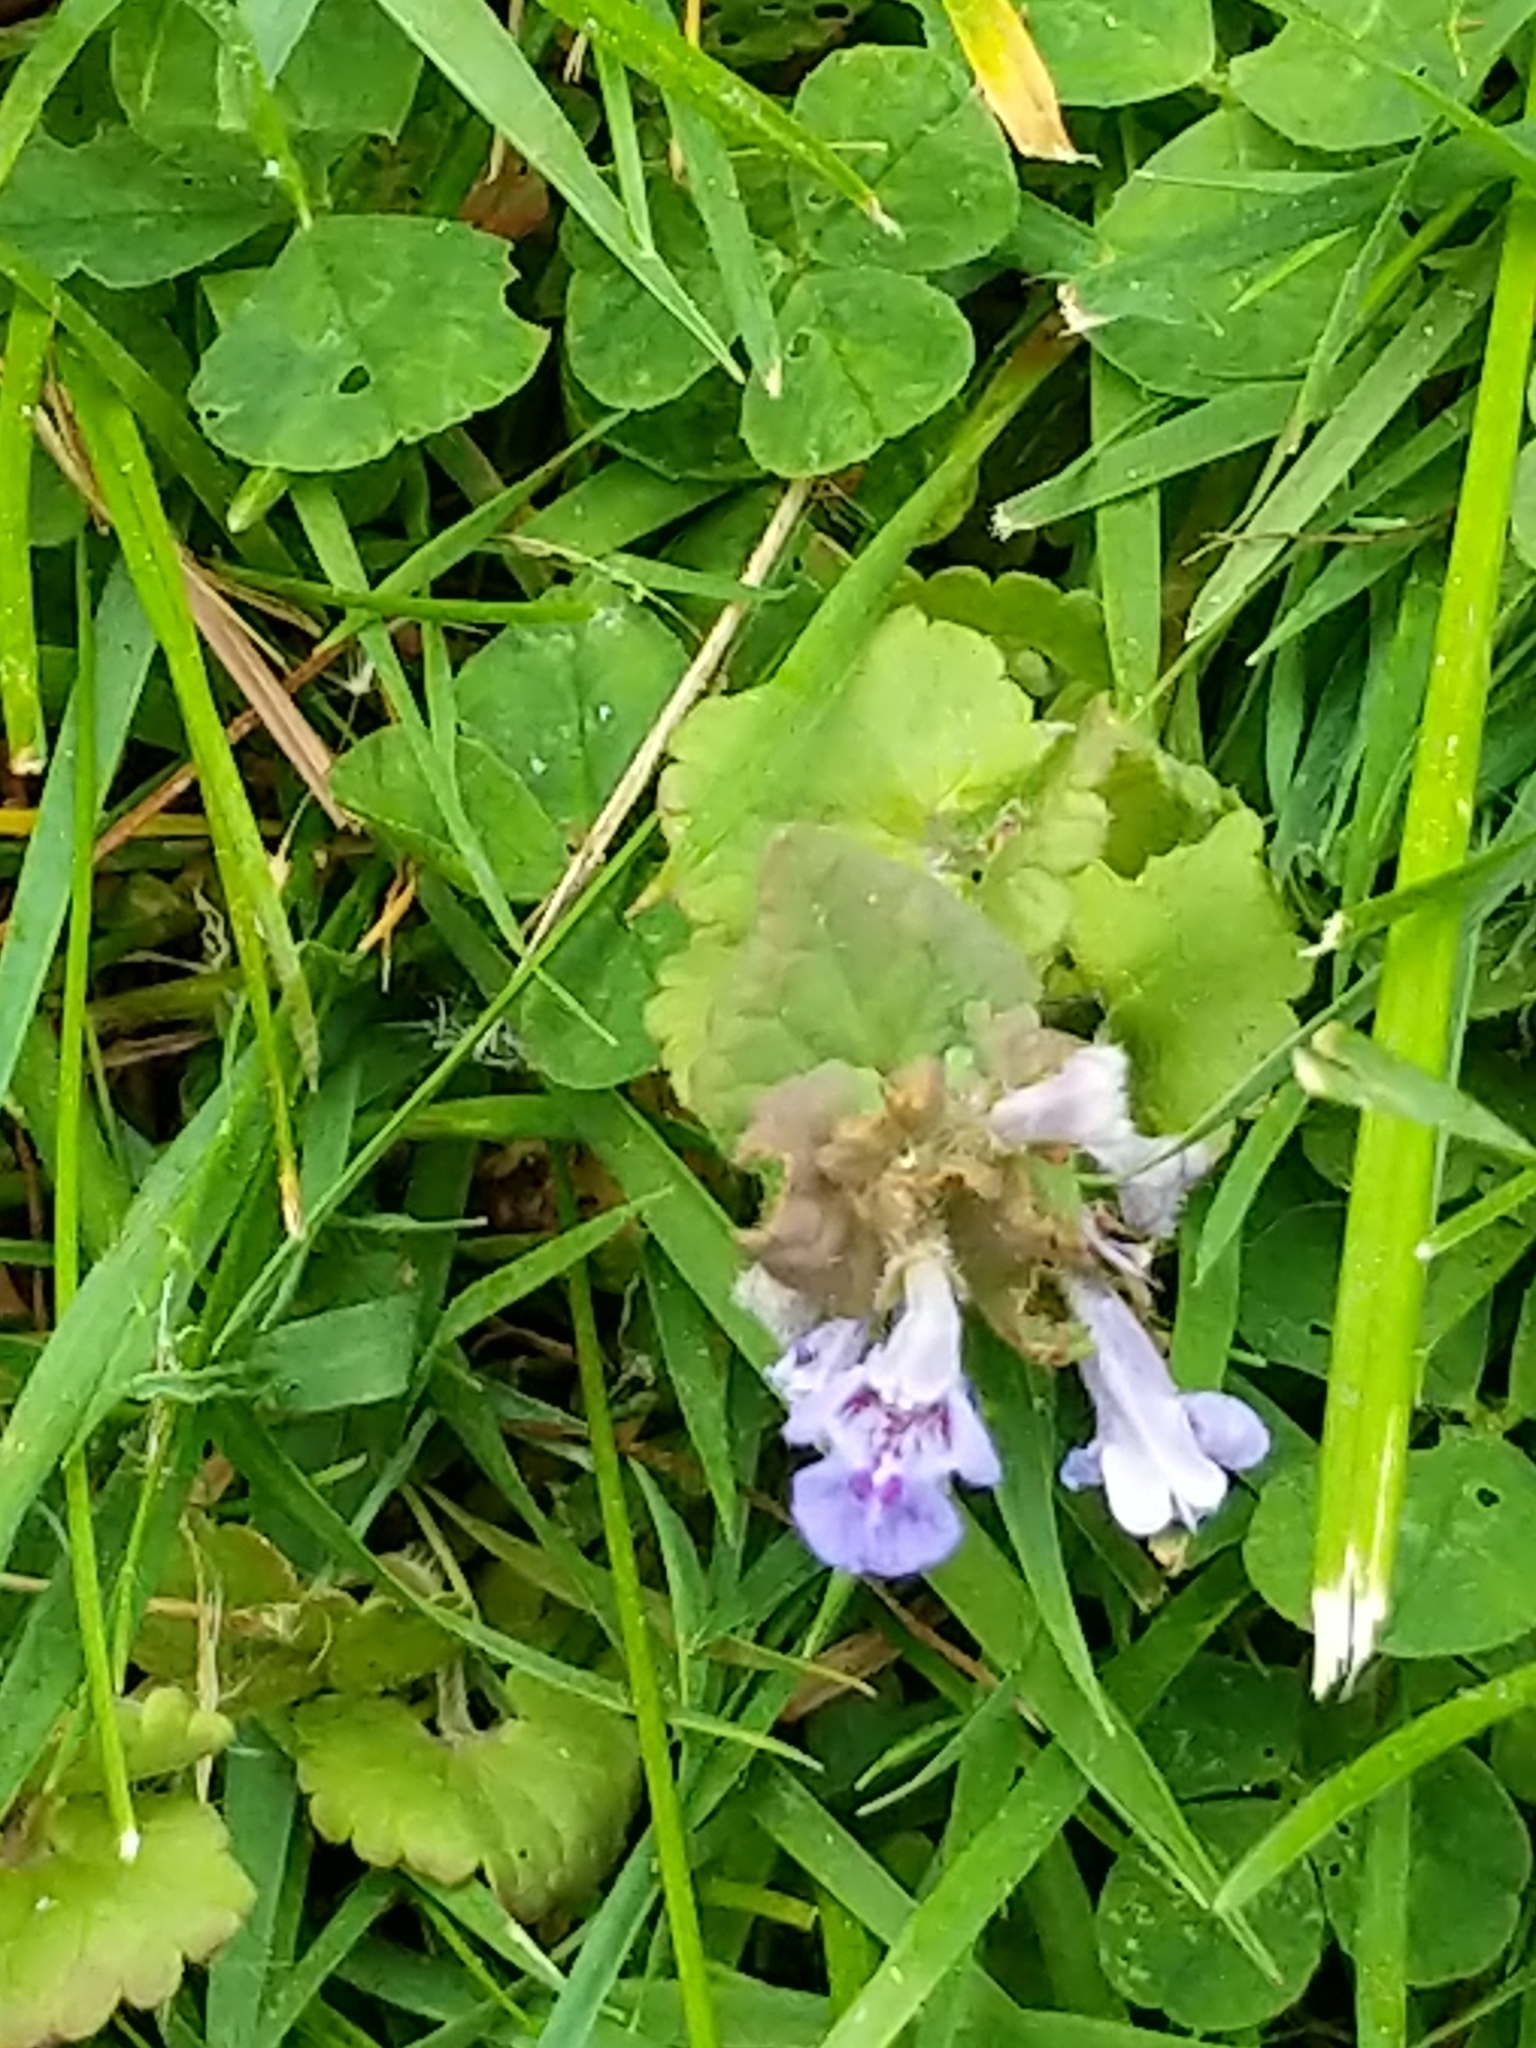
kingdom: Plantae
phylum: Tracheophyta
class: Magnoliopsida
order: Lamiales
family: Lamiaceae
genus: Glechoma
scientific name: Glechoma hederacea
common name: Ground ivy
